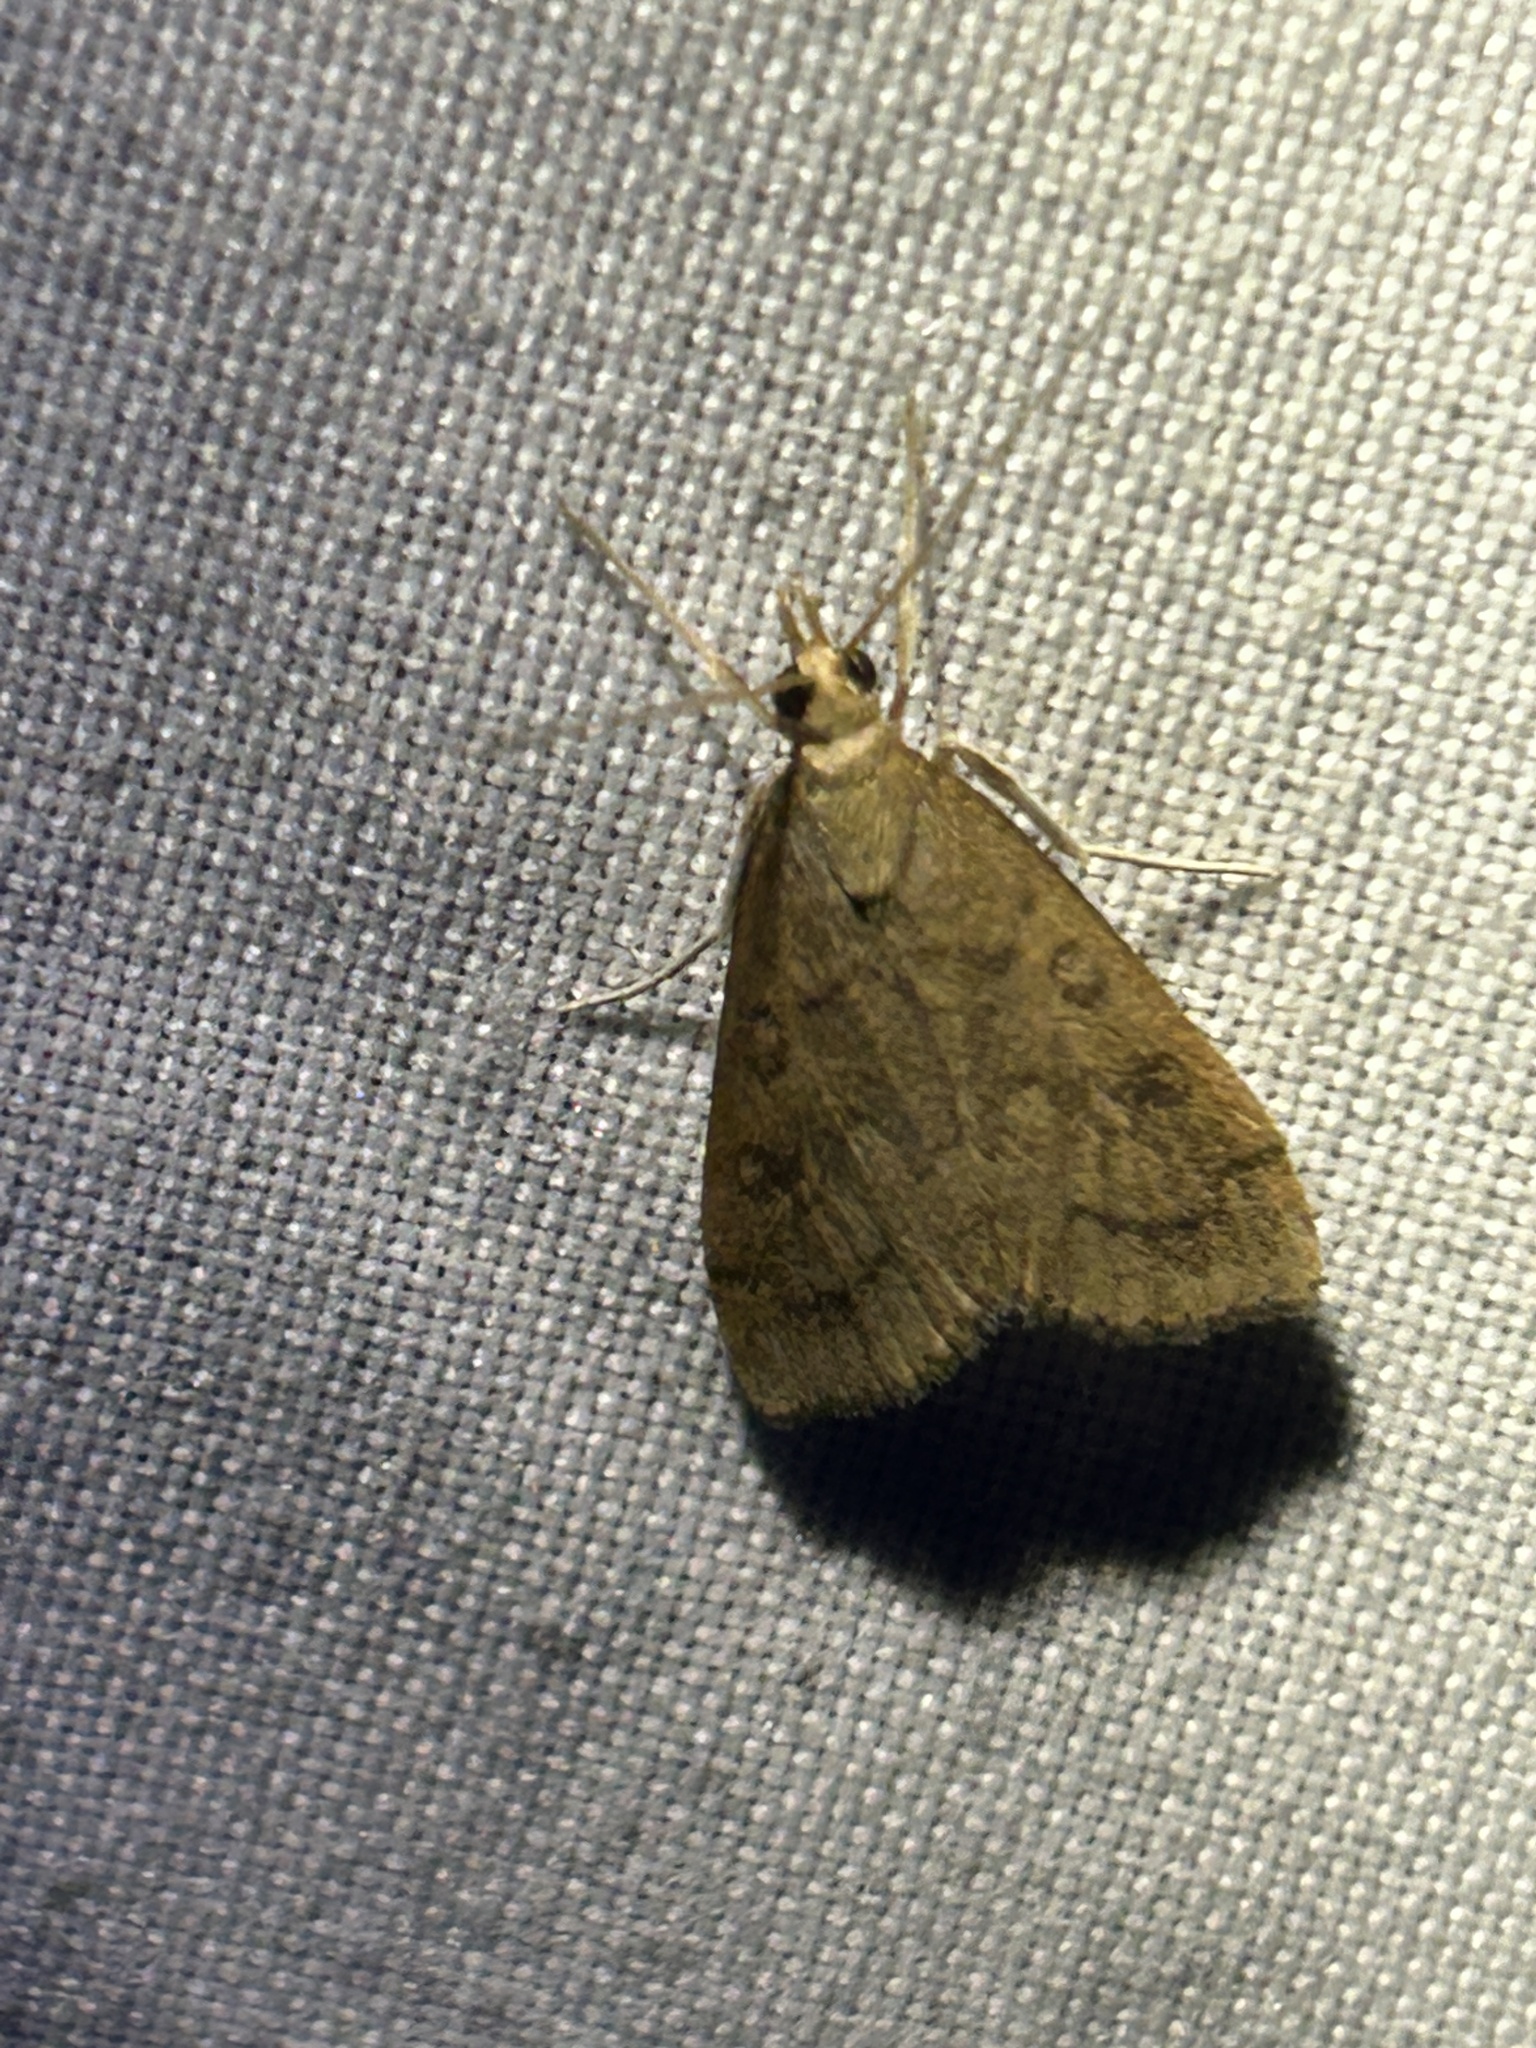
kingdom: Animalia
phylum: Arthropoda
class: Insecta
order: Lepidoptera
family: Crambidae
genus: Udea
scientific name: Udea rubigalis
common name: Celery leaftier moth
